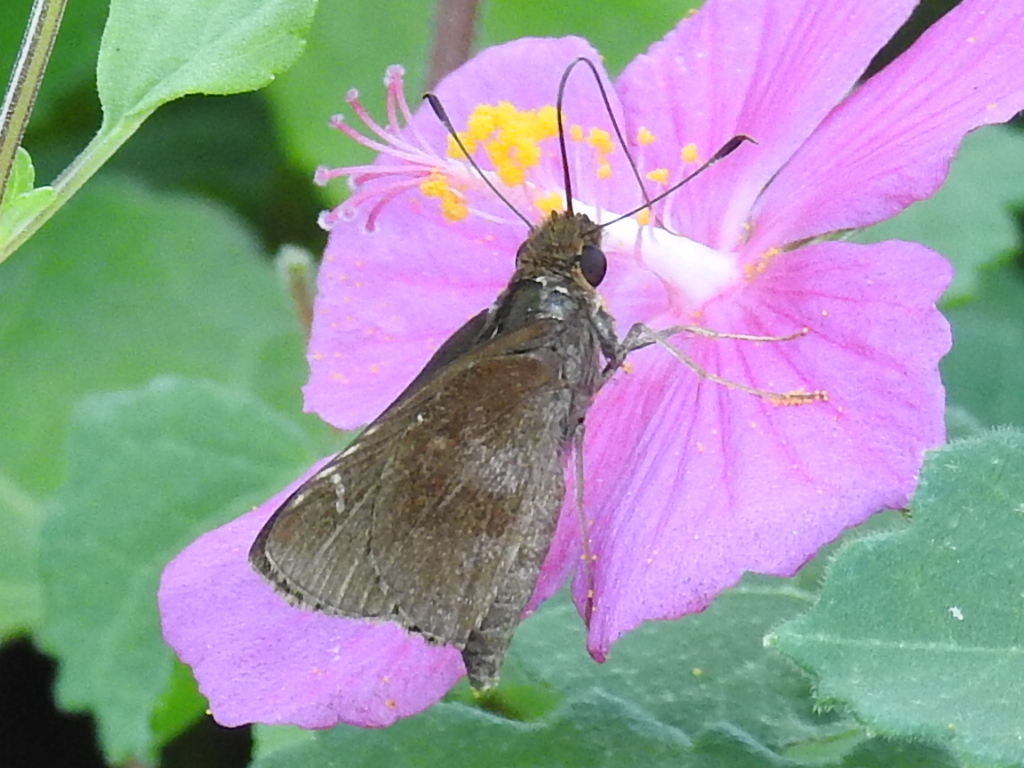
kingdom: Animalia
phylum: Arthropoda
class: Insecta
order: Lepidoptera
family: Hesperiidae
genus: Lerema
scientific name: Lerema accius
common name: Clouded skipper
